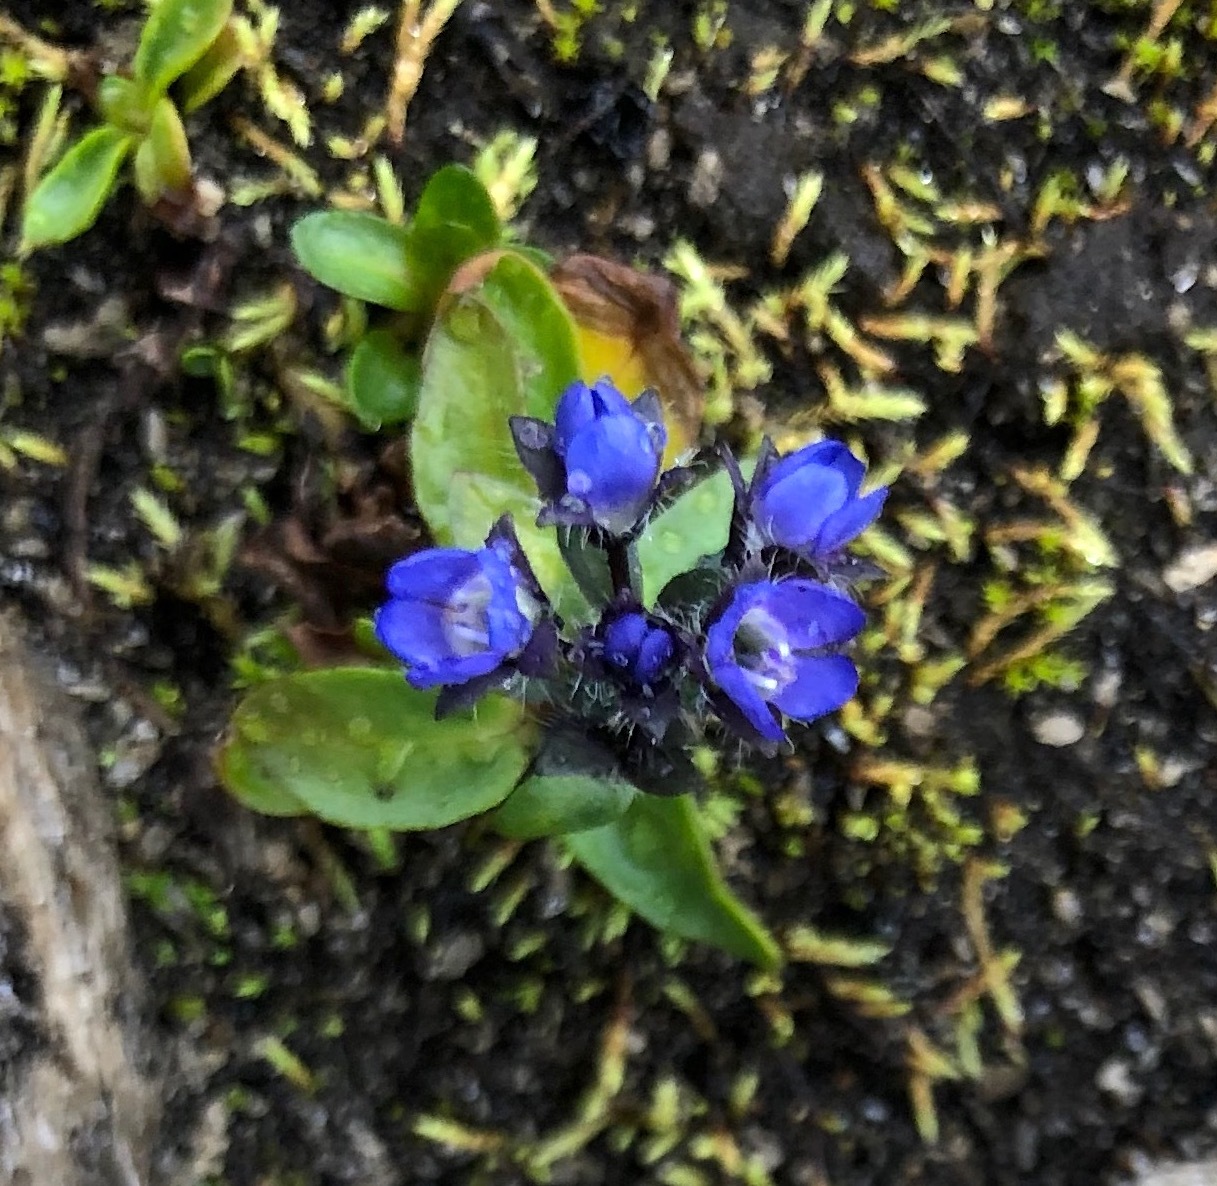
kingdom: Plantae
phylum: Tracheophyta
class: Magnoliopsida
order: Lamiales
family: Plantaginaceae
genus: Veronica
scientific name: Veronica alpina
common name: Alpine speedwell
